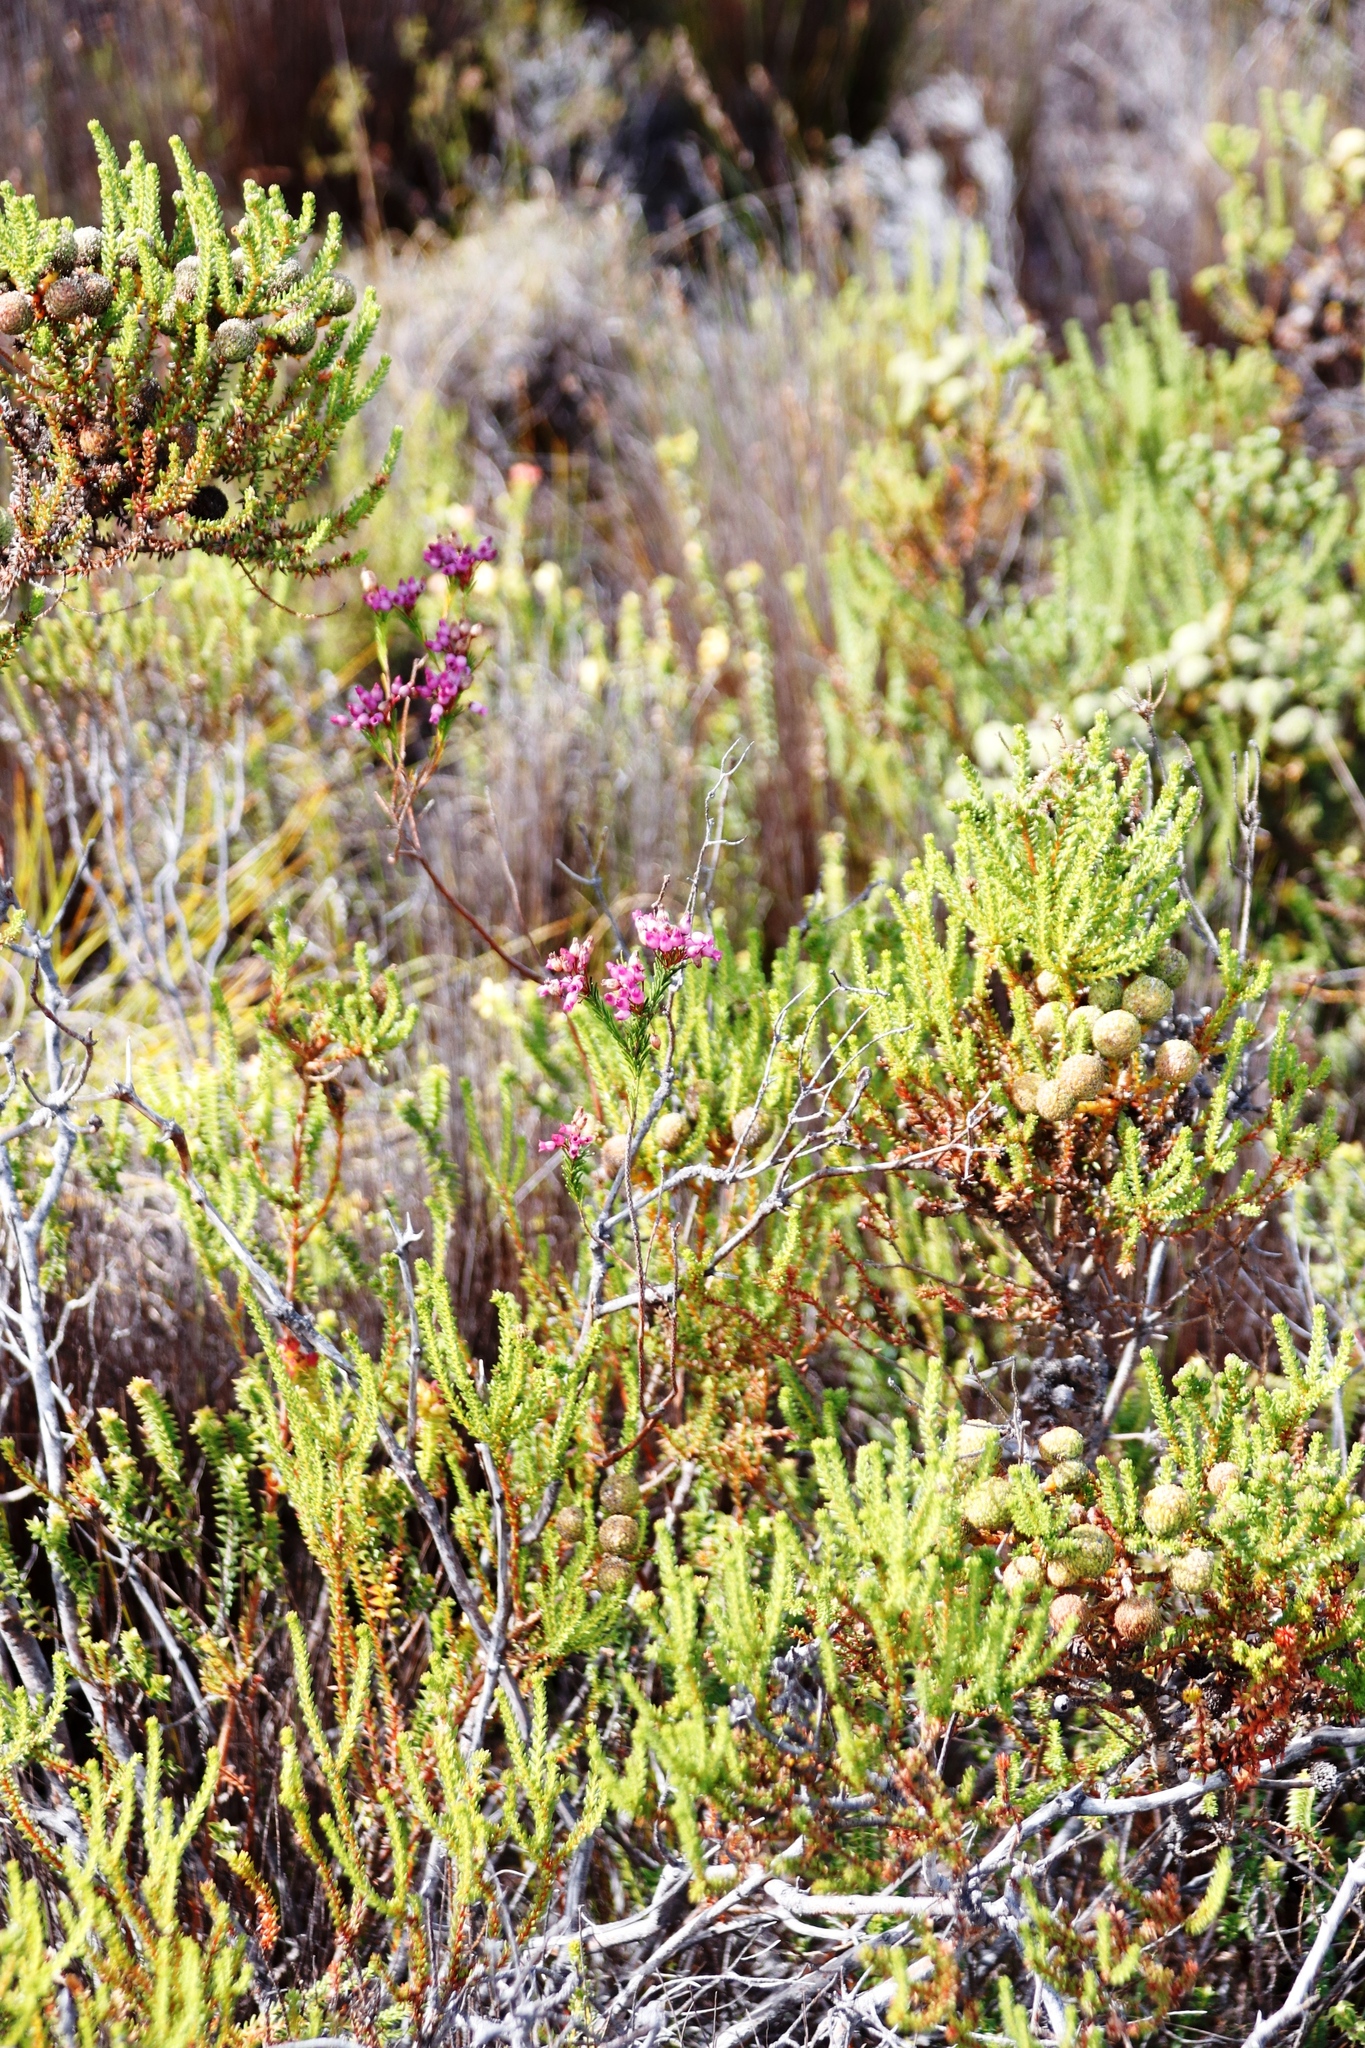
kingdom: Plantae
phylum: Tracheophyta
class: Magnoliopsida
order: Ericales
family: Ericaceae
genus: Erica
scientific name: Erica obliqua
